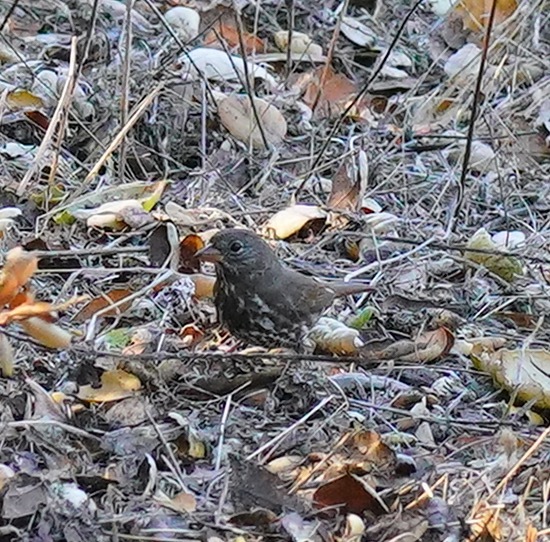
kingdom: Animalia
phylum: Chordata
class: Aves
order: Passeriformes
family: Passerellidae
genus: Passerella
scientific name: Passerella iliaca
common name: Fox sparrow
